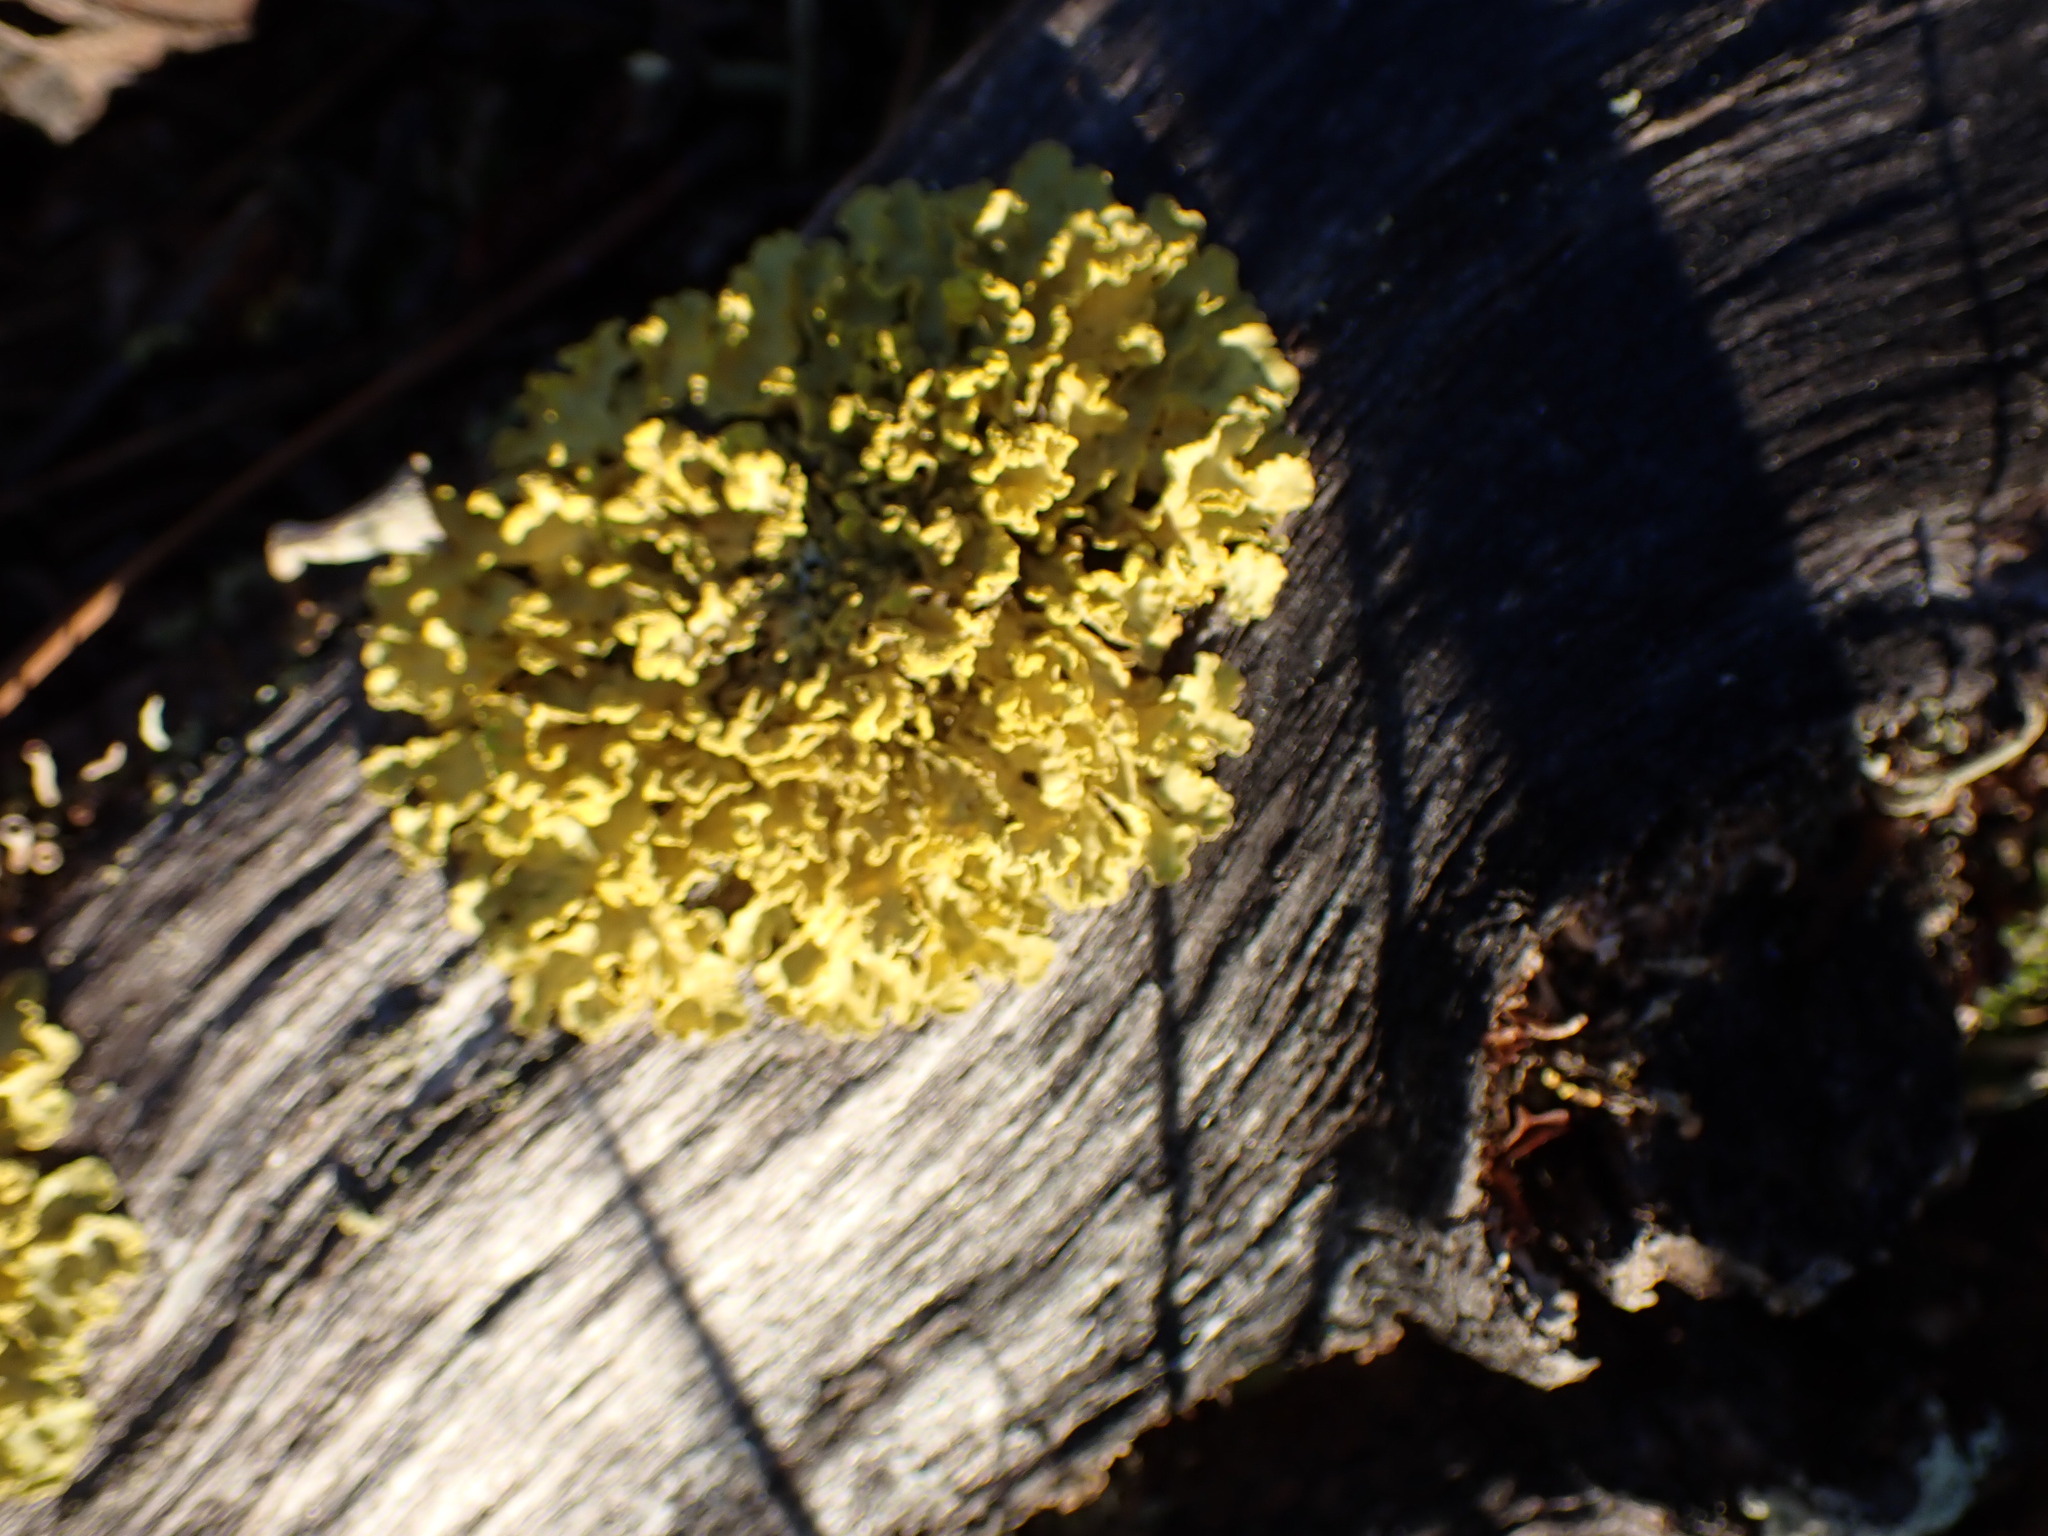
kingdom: Fungi
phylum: Ascomycota
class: Lecanoromycetes
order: Lecanorales
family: Parmeliaceae
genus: Vulpicida
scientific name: Vulpicida pinastri
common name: Powdered sunshine lichen
